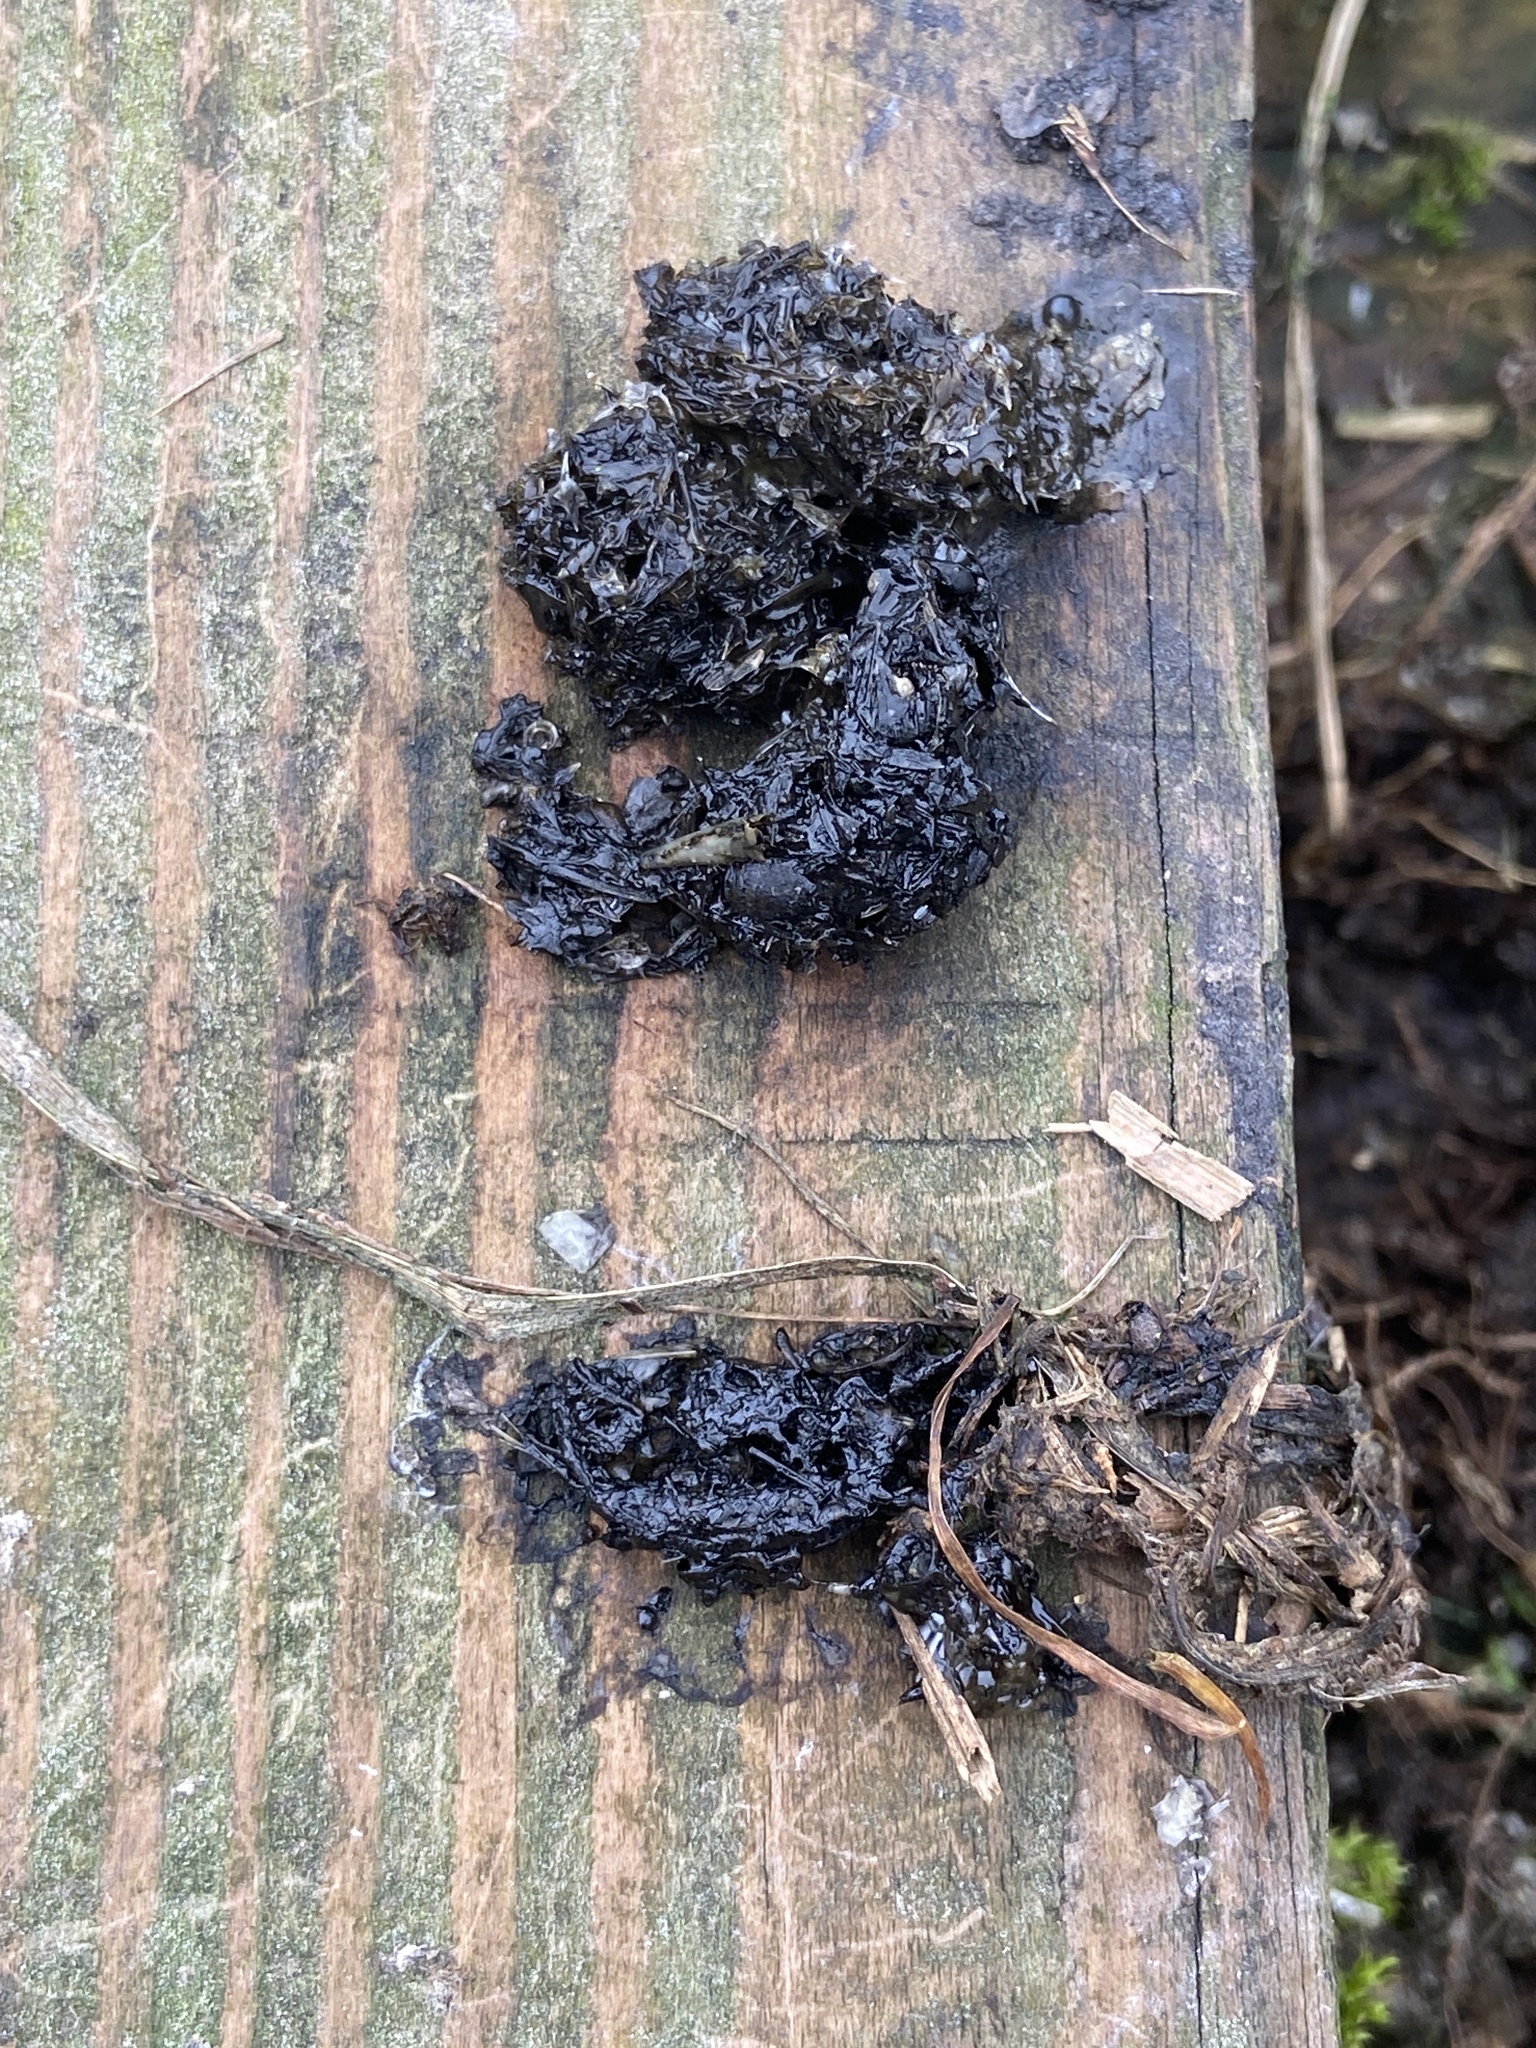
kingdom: Animalia
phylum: Chordata
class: Mammalia
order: Carnivora
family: Mustelidae
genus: Lutra
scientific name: Lutra lutra
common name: European otter
